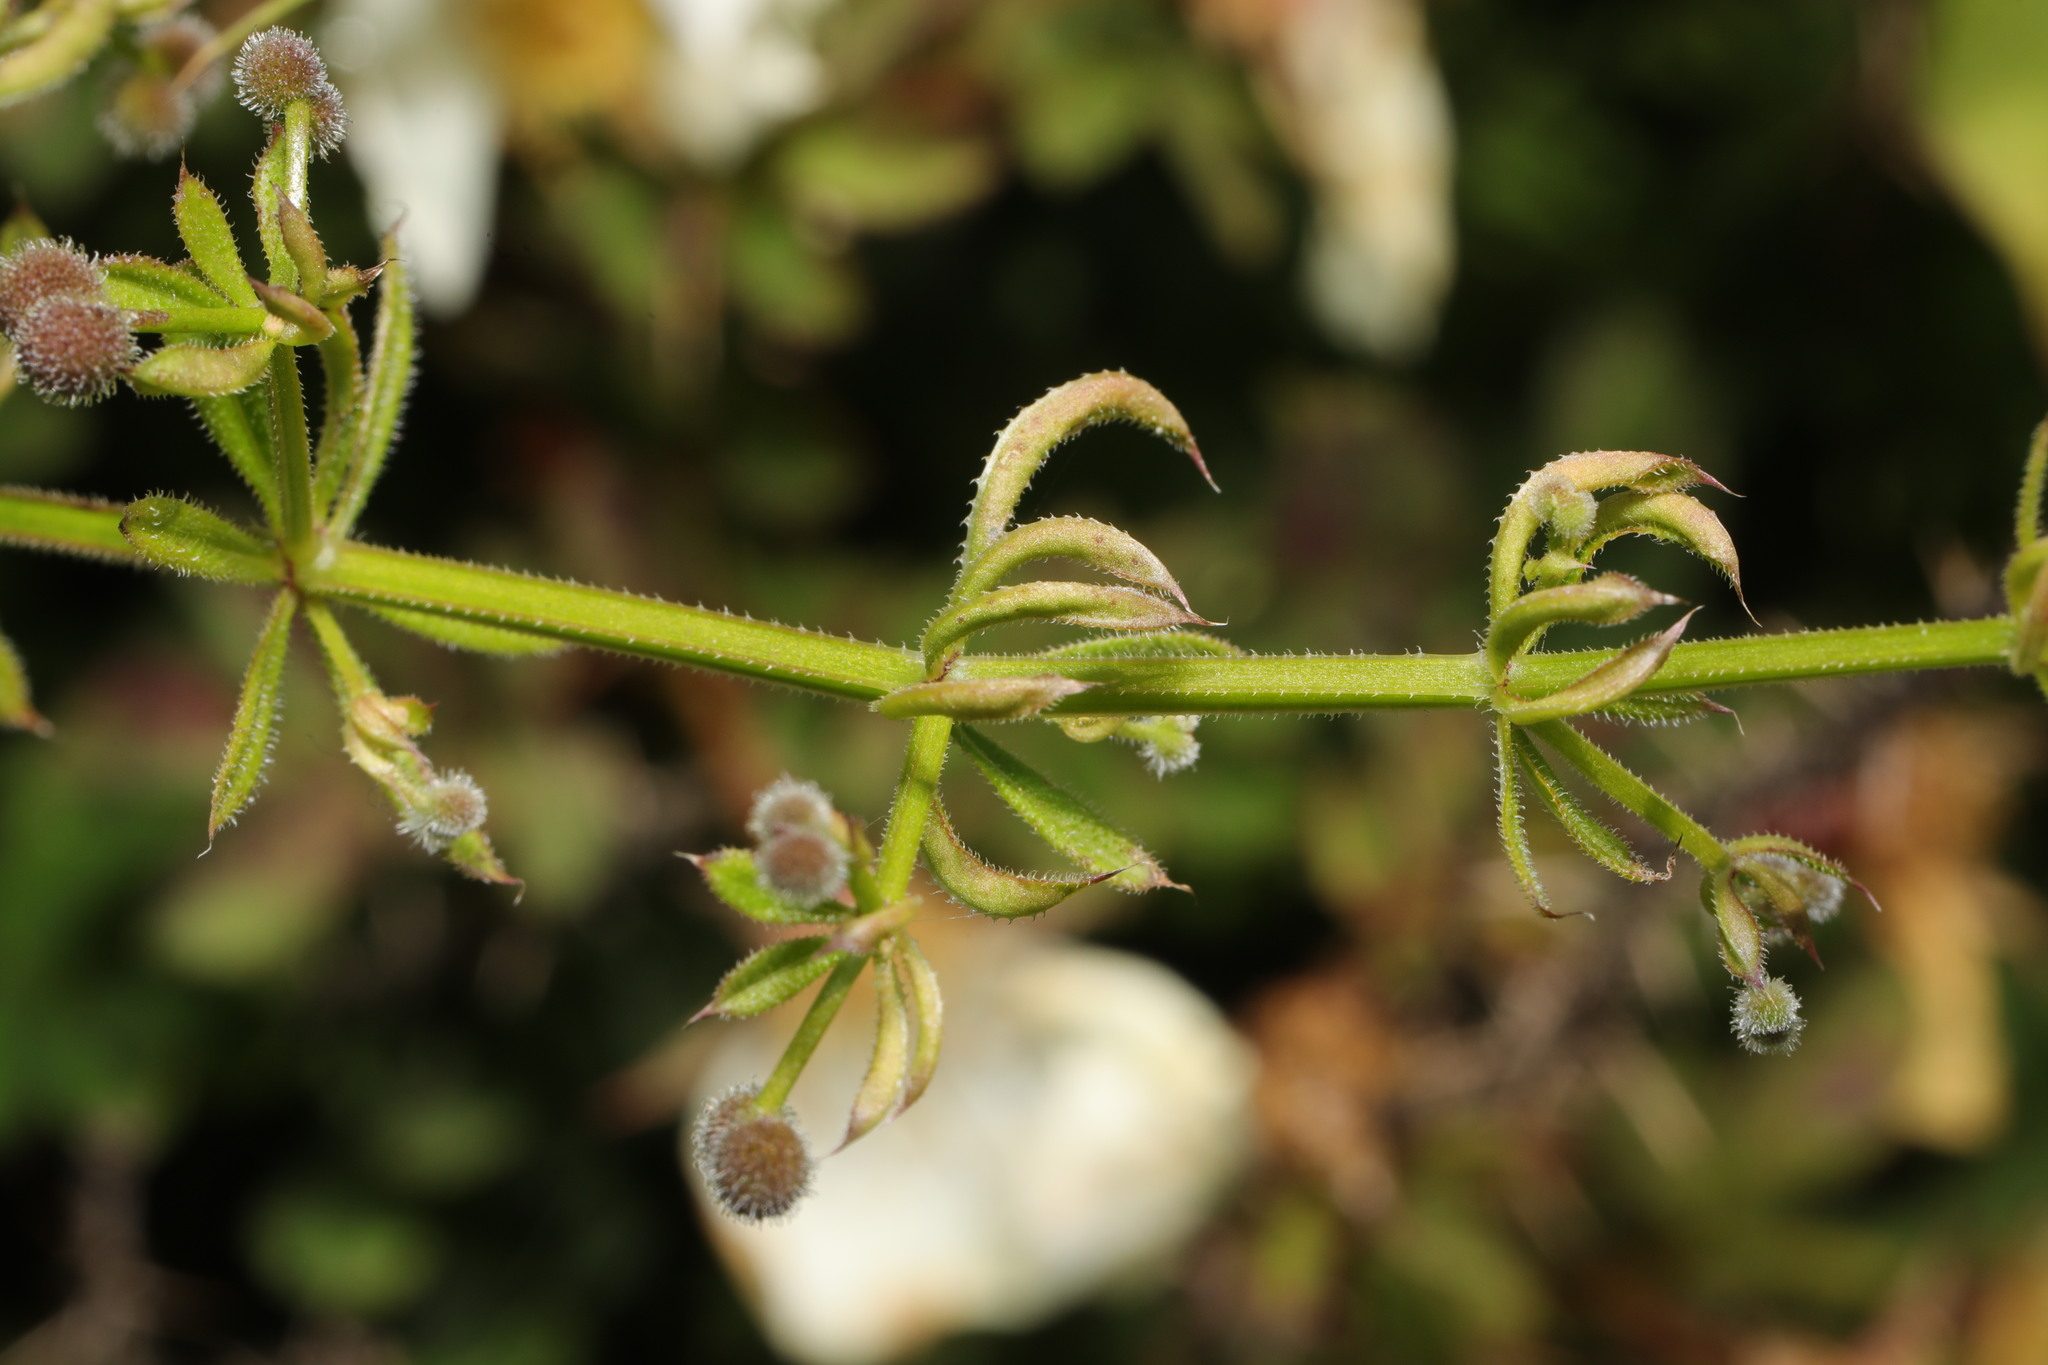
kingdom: Animalia
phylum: Arthropoda
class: Arachnida
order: Trombidiformes
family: Eriophyidae
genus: Cecidophyes
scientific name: Cecidophyes rouhollahi
